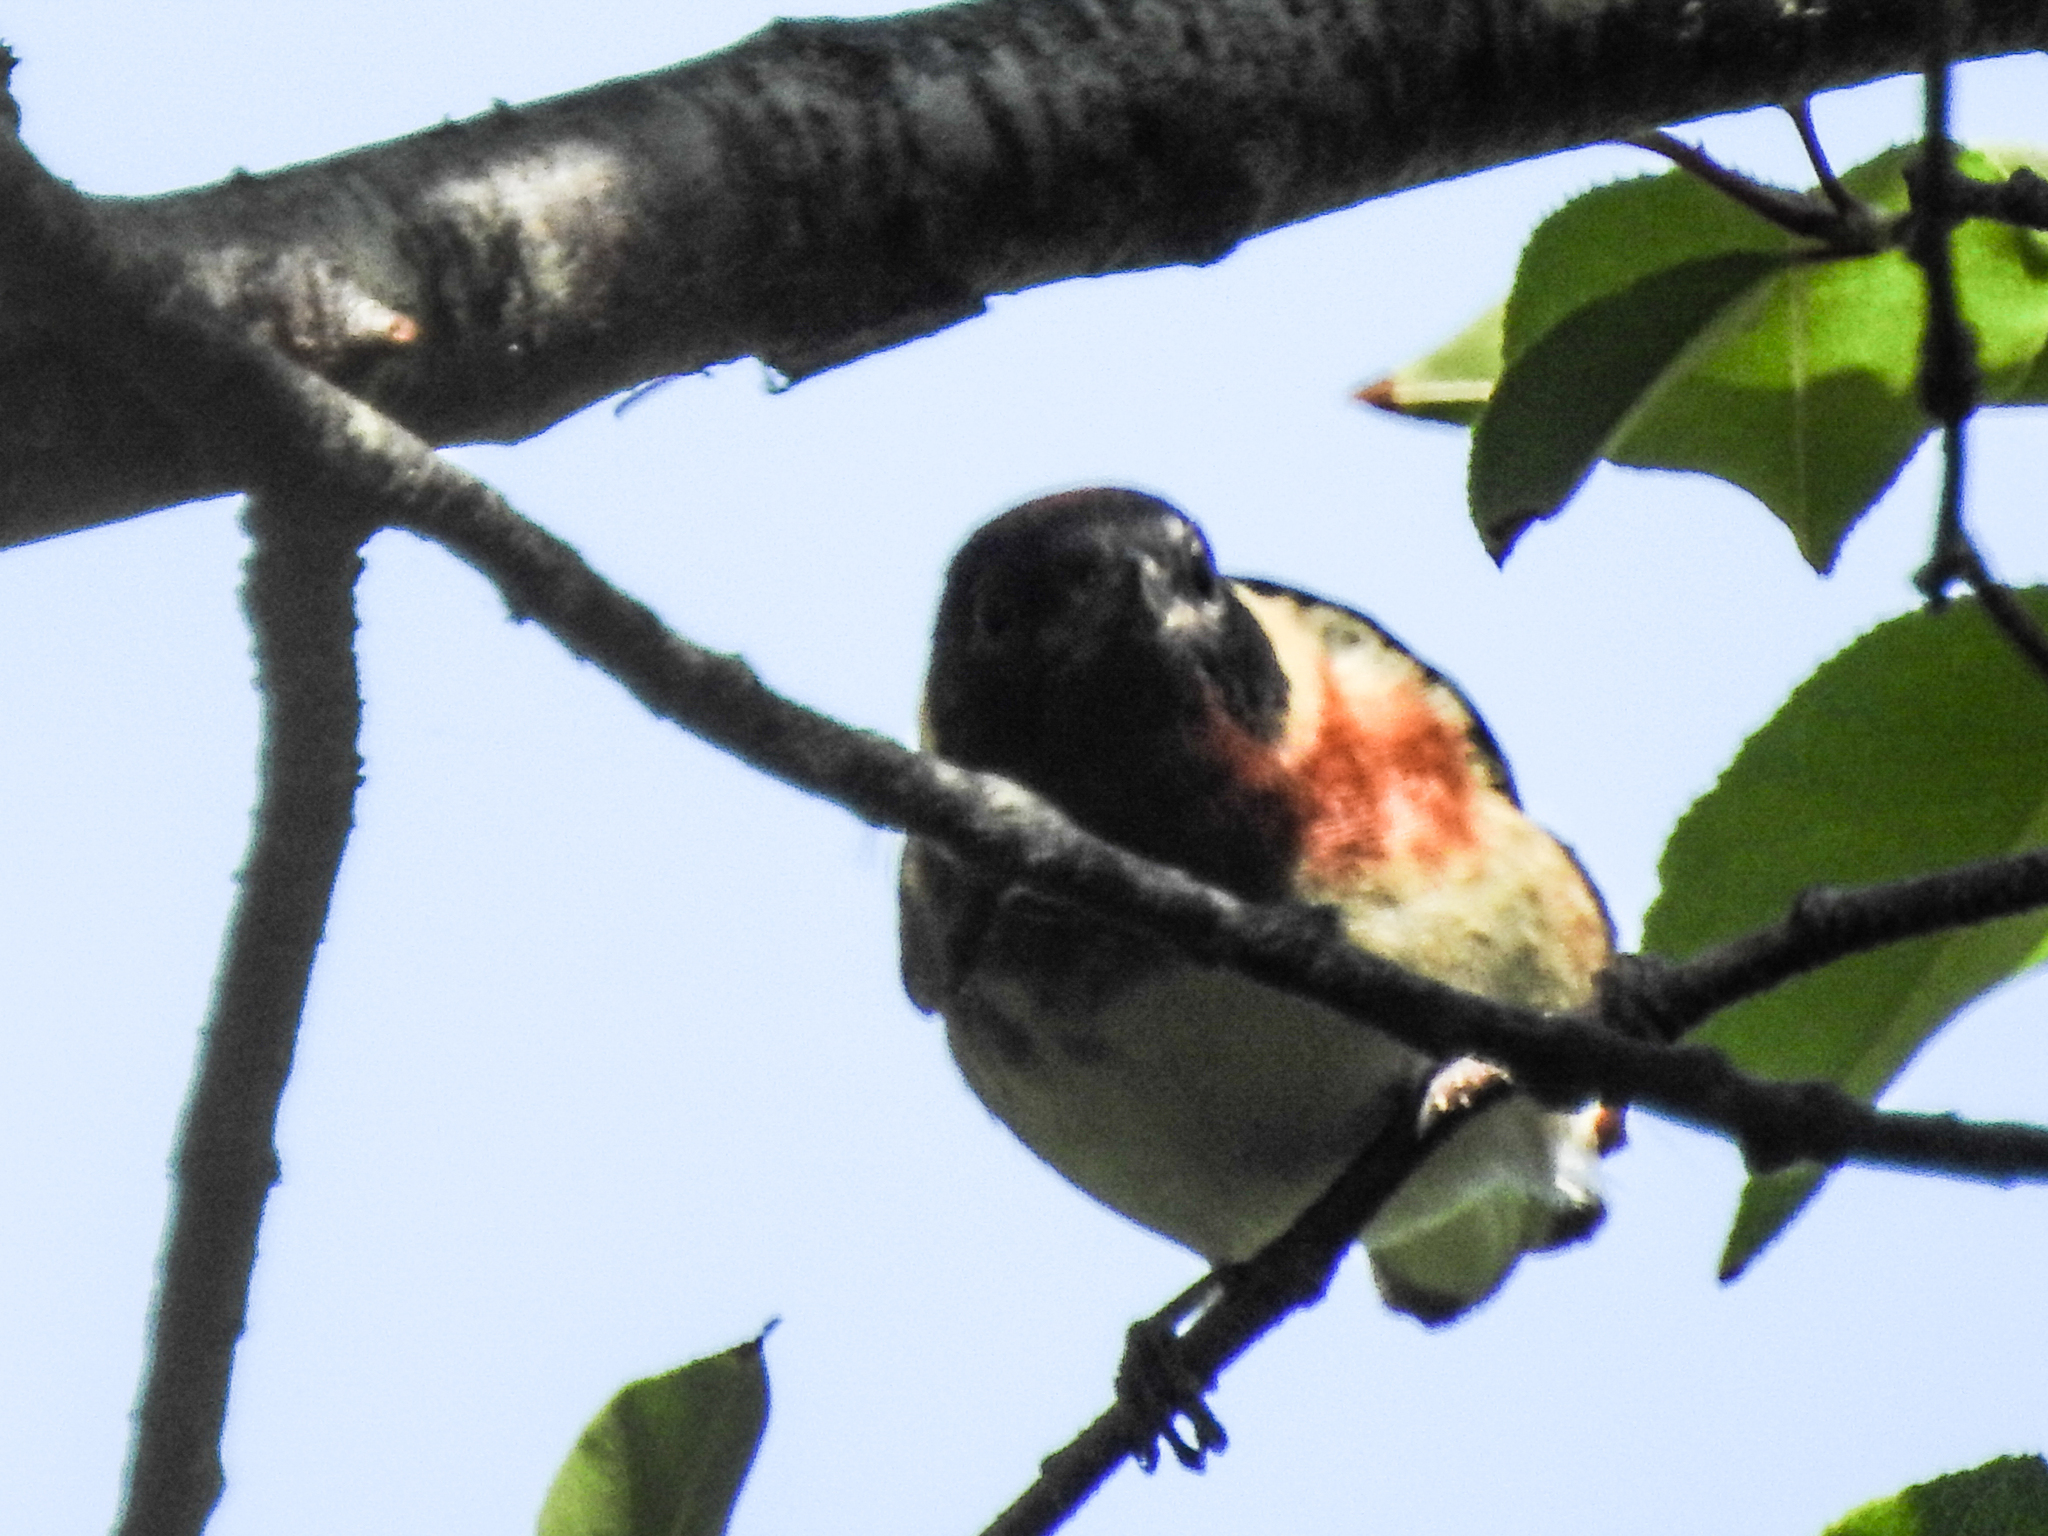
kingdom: Animalia
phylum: Chordata
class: Aves
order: Passeriformes
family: Parulidae
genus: Setophaga
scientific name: Setophaga castanea
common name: Bay-breasted warbler
